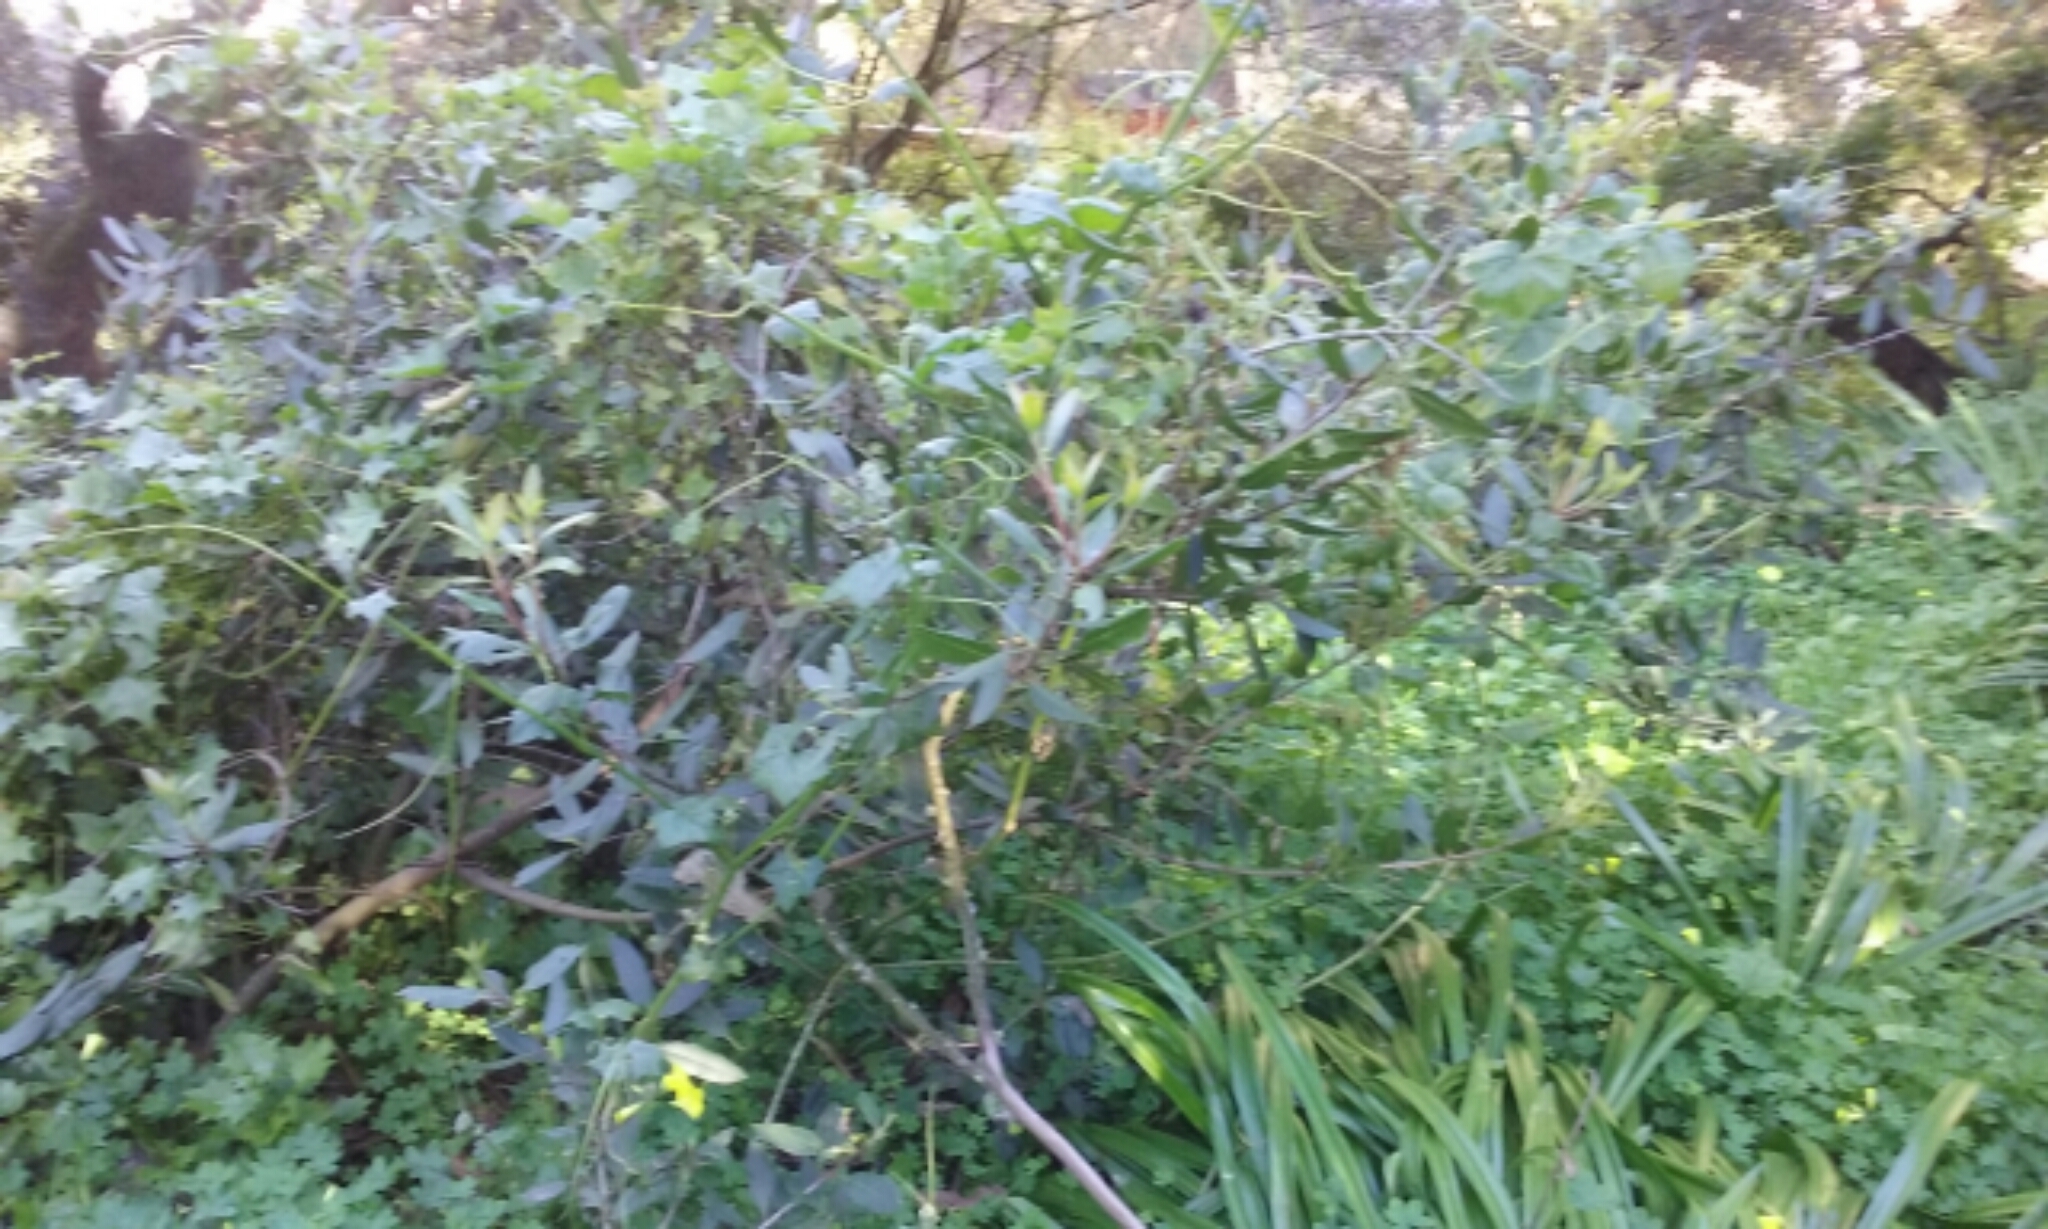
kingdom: Plantae
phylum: Tracheophyta
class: Magnoliopsida
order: Rosales
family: Rosaceae
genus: Heteromeles
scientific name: Heteromeles arbutifolia
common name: California-holly
